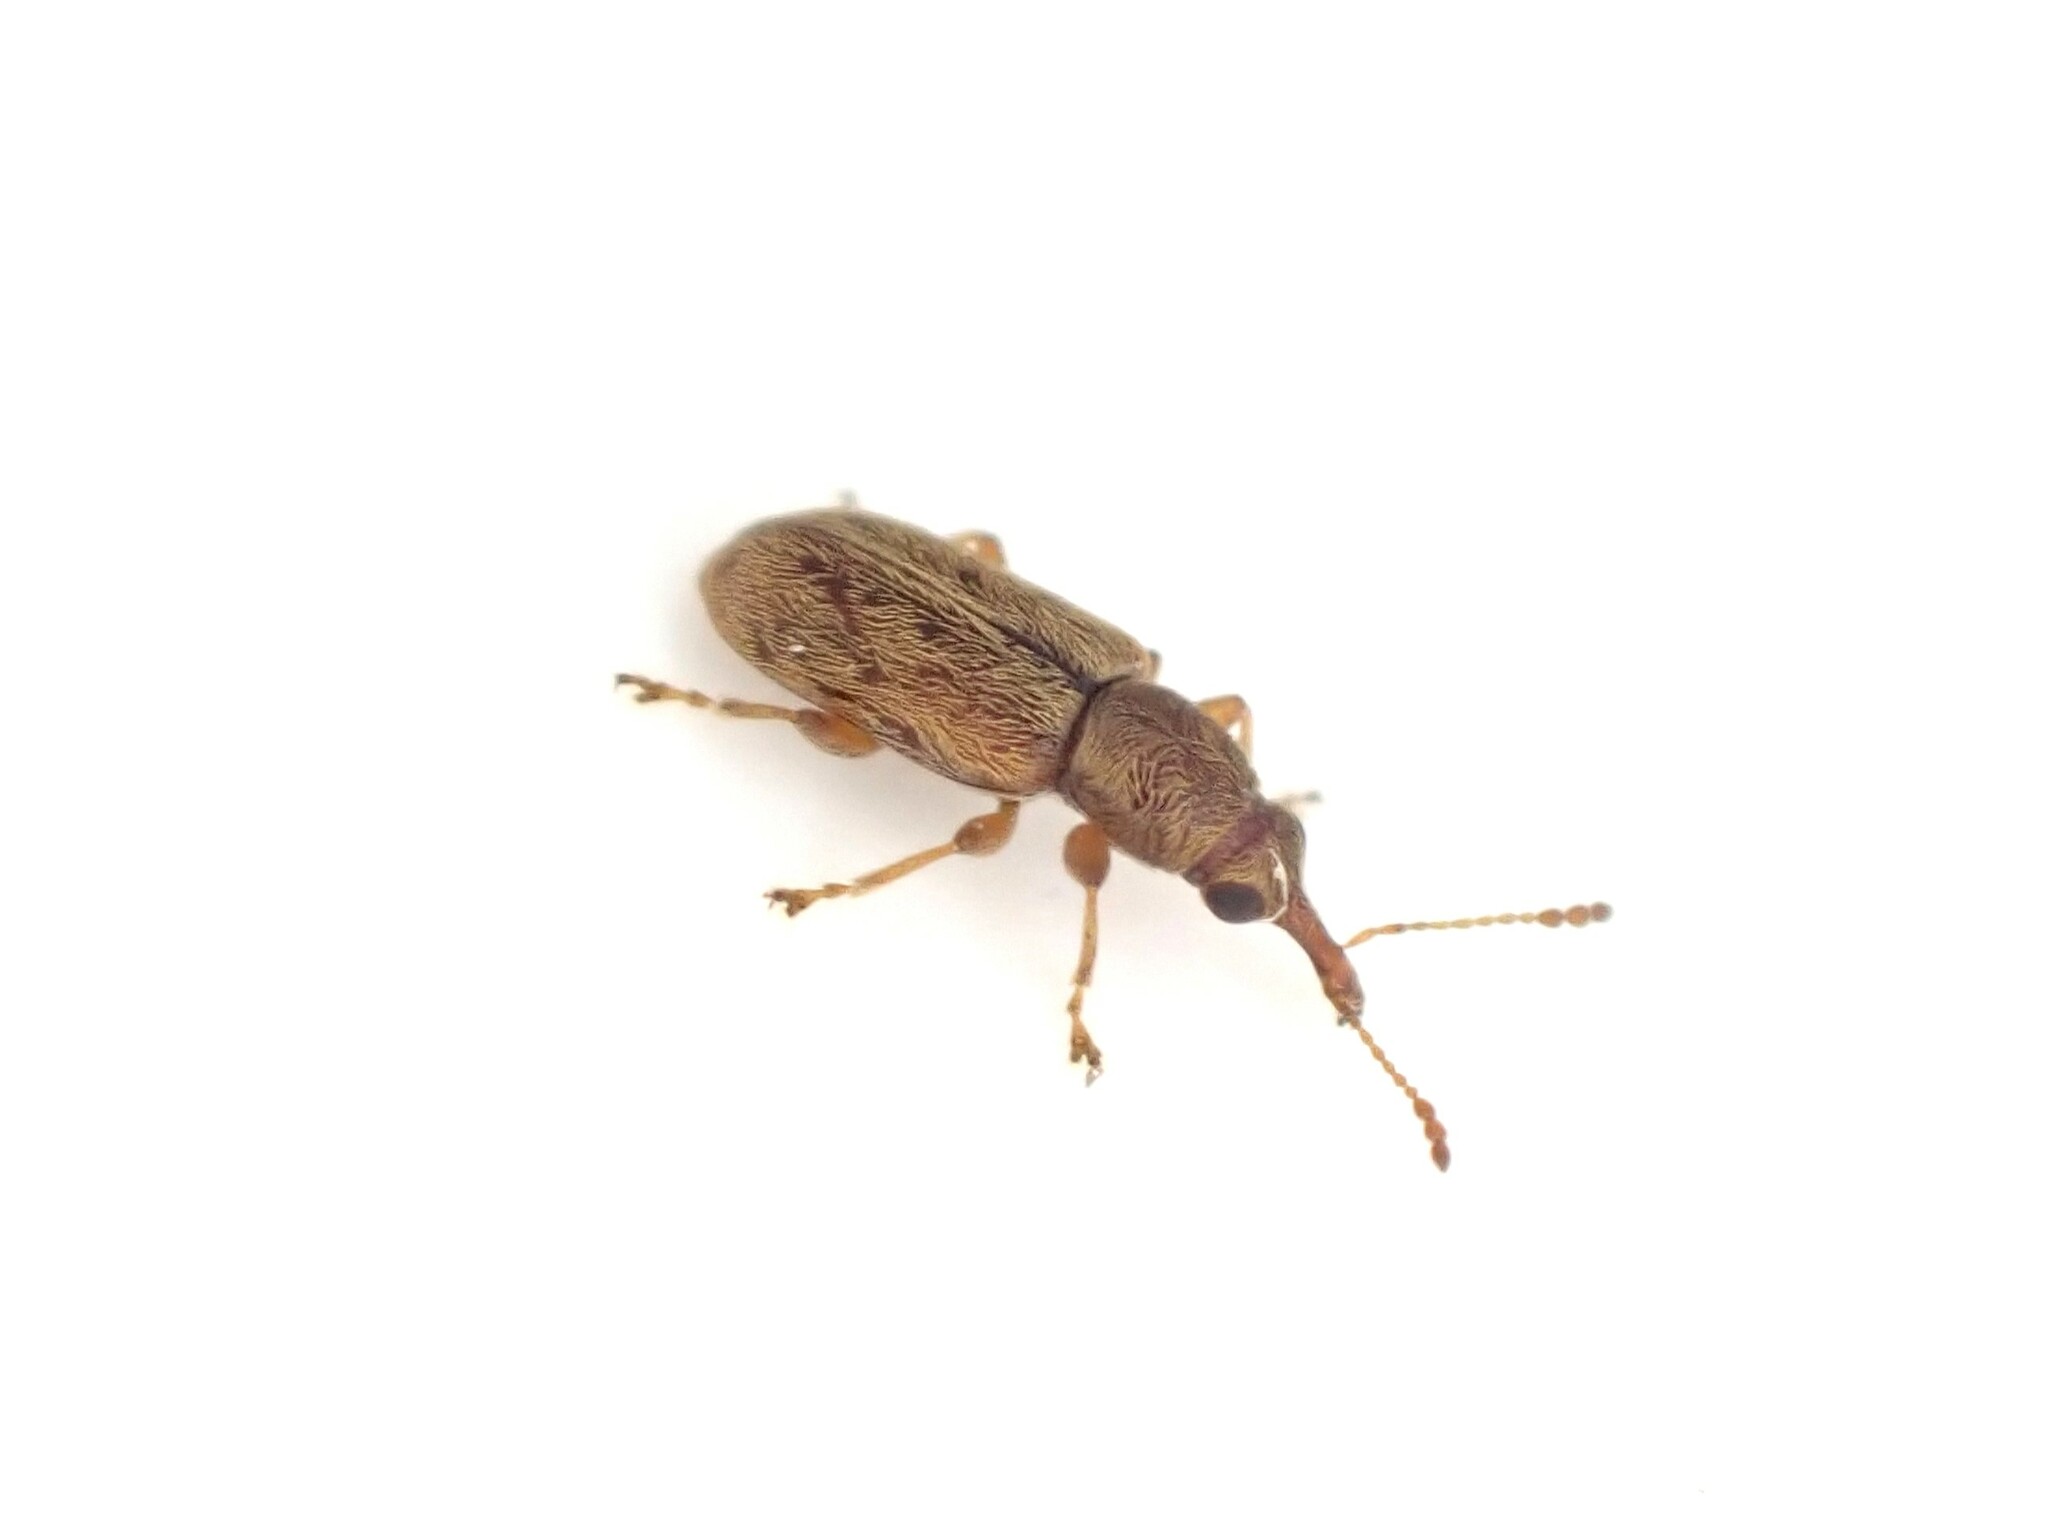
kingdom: Animalia
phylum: Arthropoda
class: Insecta
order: Coleoptera
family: Nemonychidae
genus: Rhinorhynchus
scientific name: Rhinorhynchus rufulus
